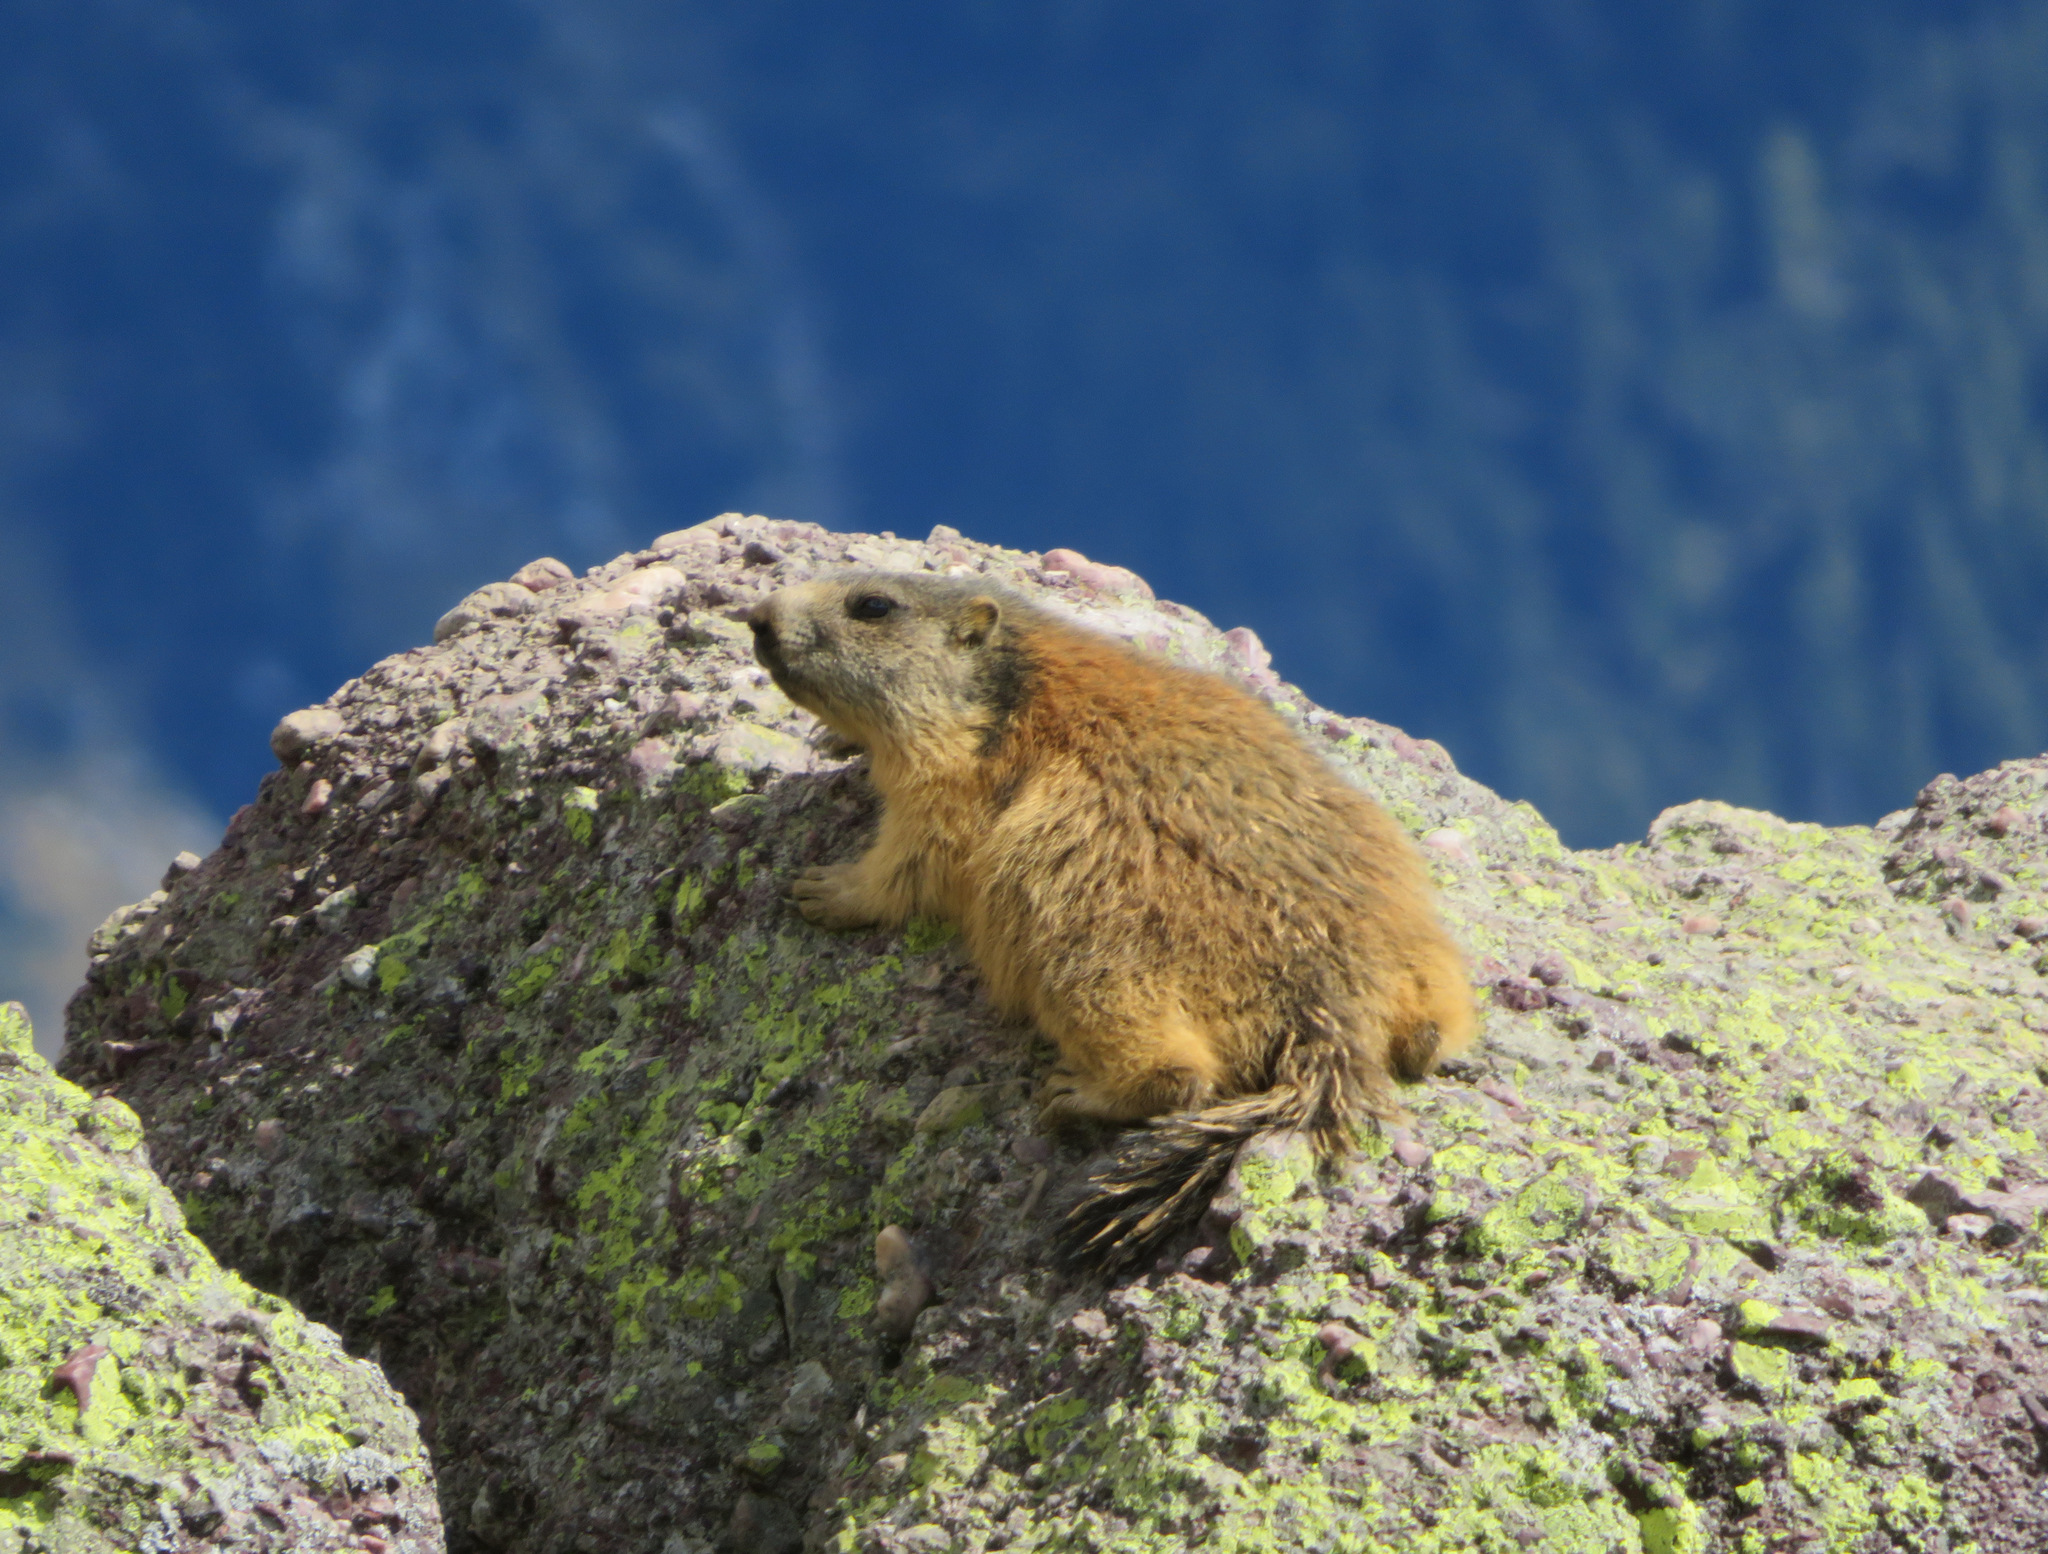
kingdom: Animalia
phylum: Chordata
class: Mammalia
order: Rodentia
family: Sciuridae
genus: Marmota
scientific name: Marmota marmota
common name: Alpine marmot
